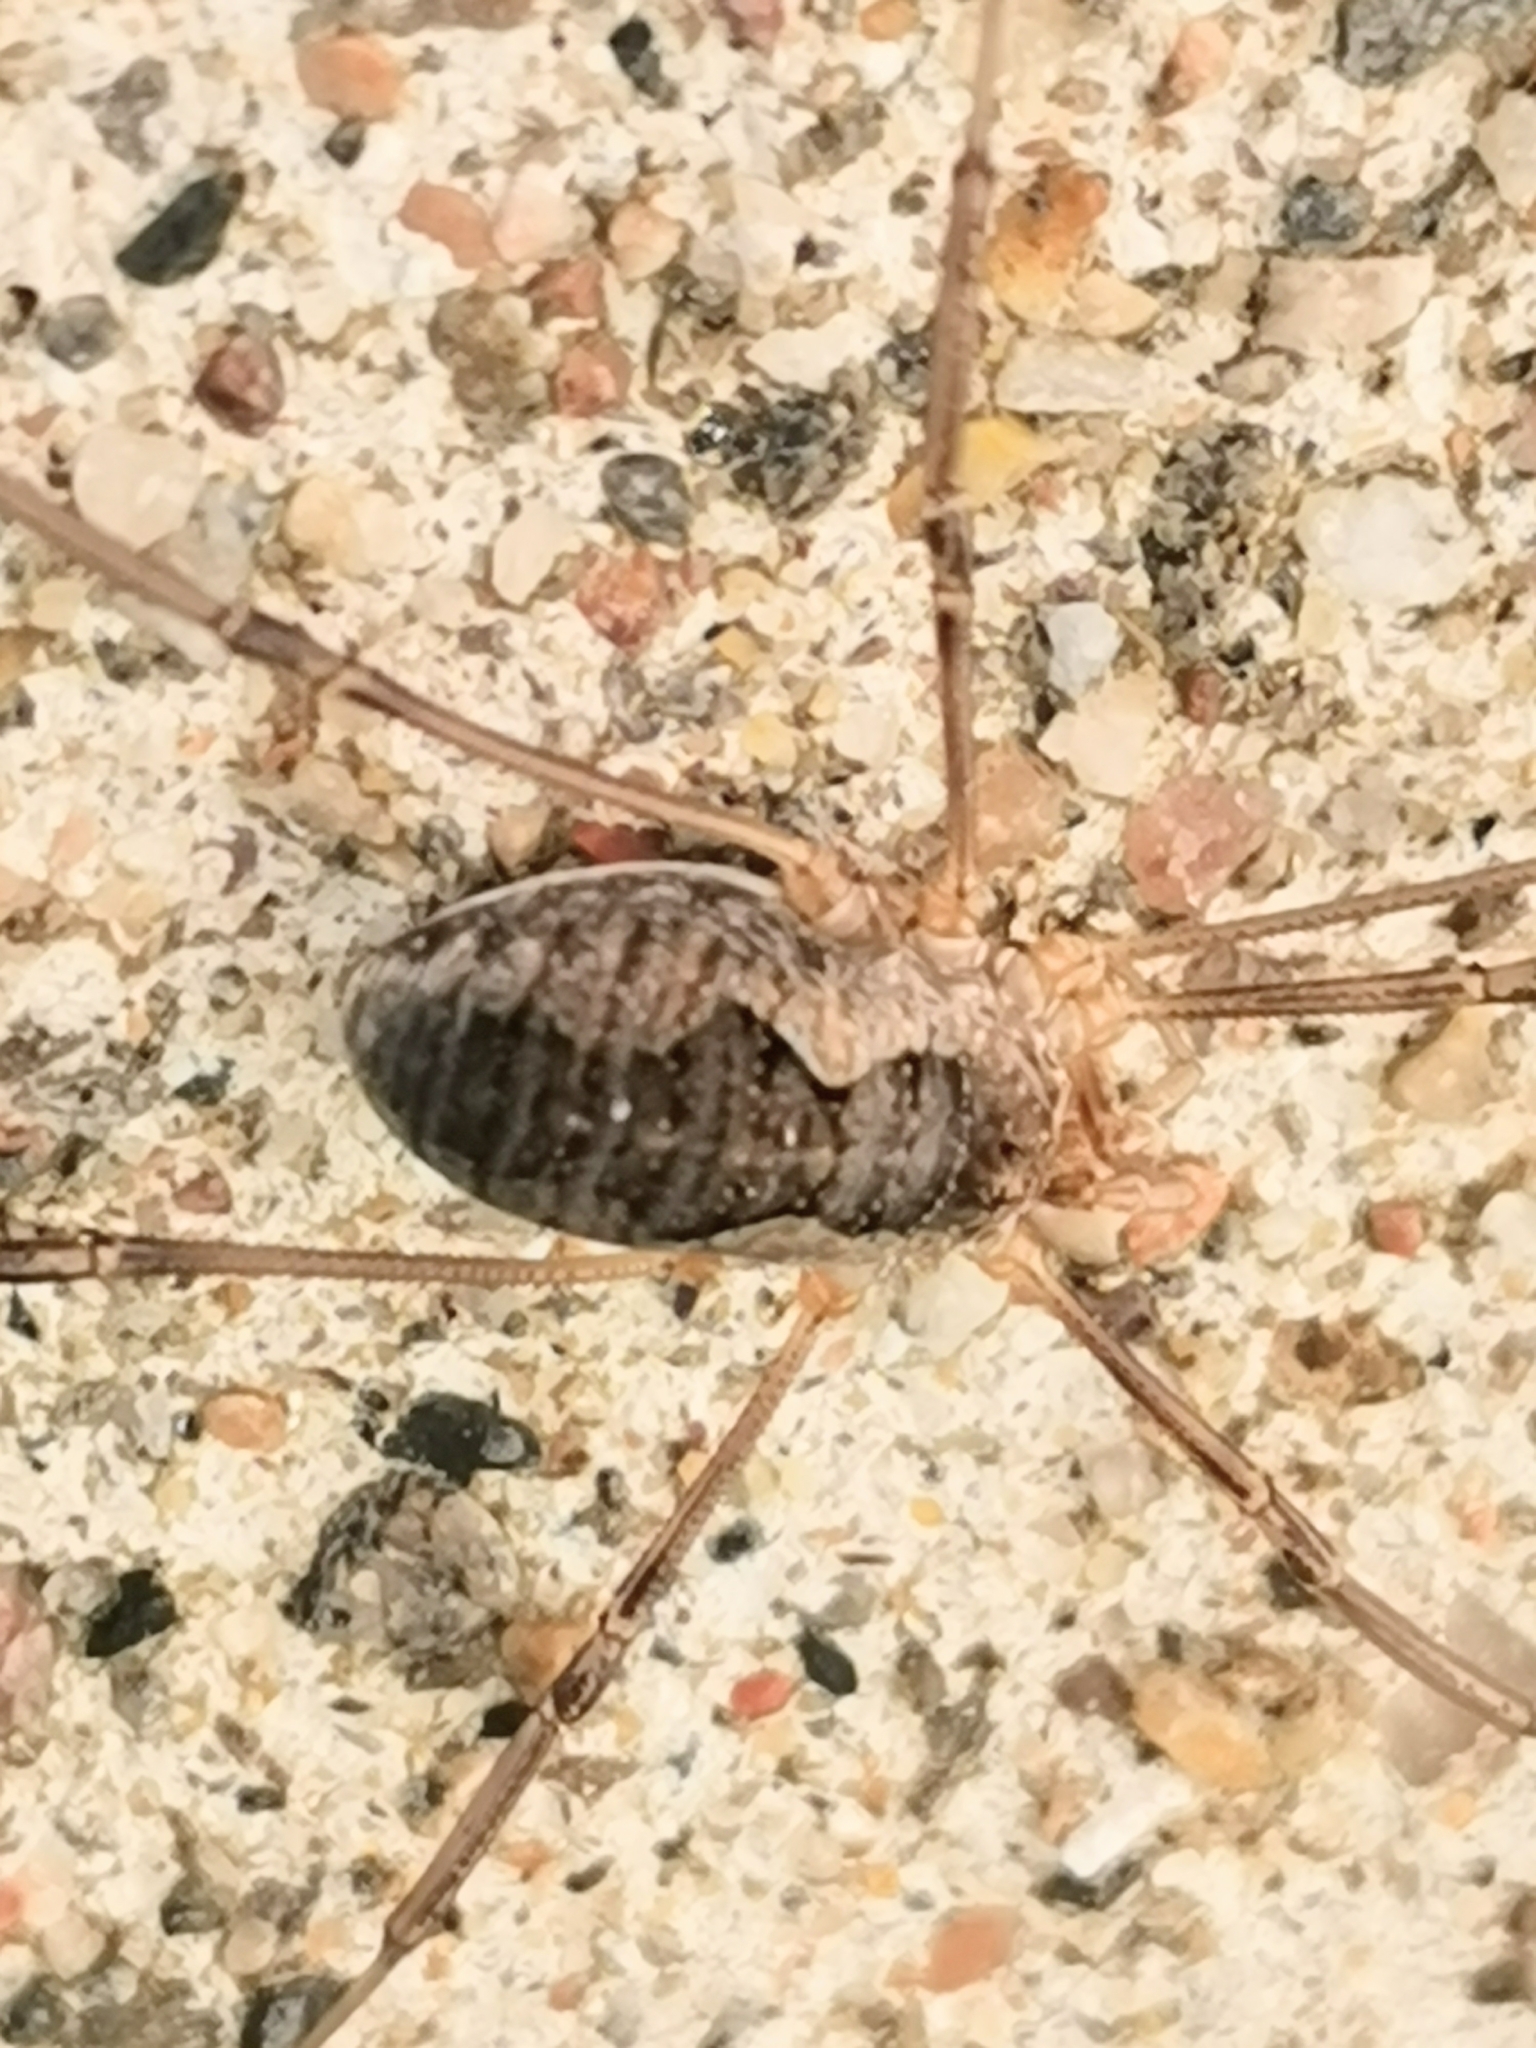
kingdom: Animalia
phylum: Arthropoda
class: Arachnida
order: Opiliones
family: Phalangiidae
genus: Phalangium
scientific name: Phalangium opilio
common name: Daddy longleg
